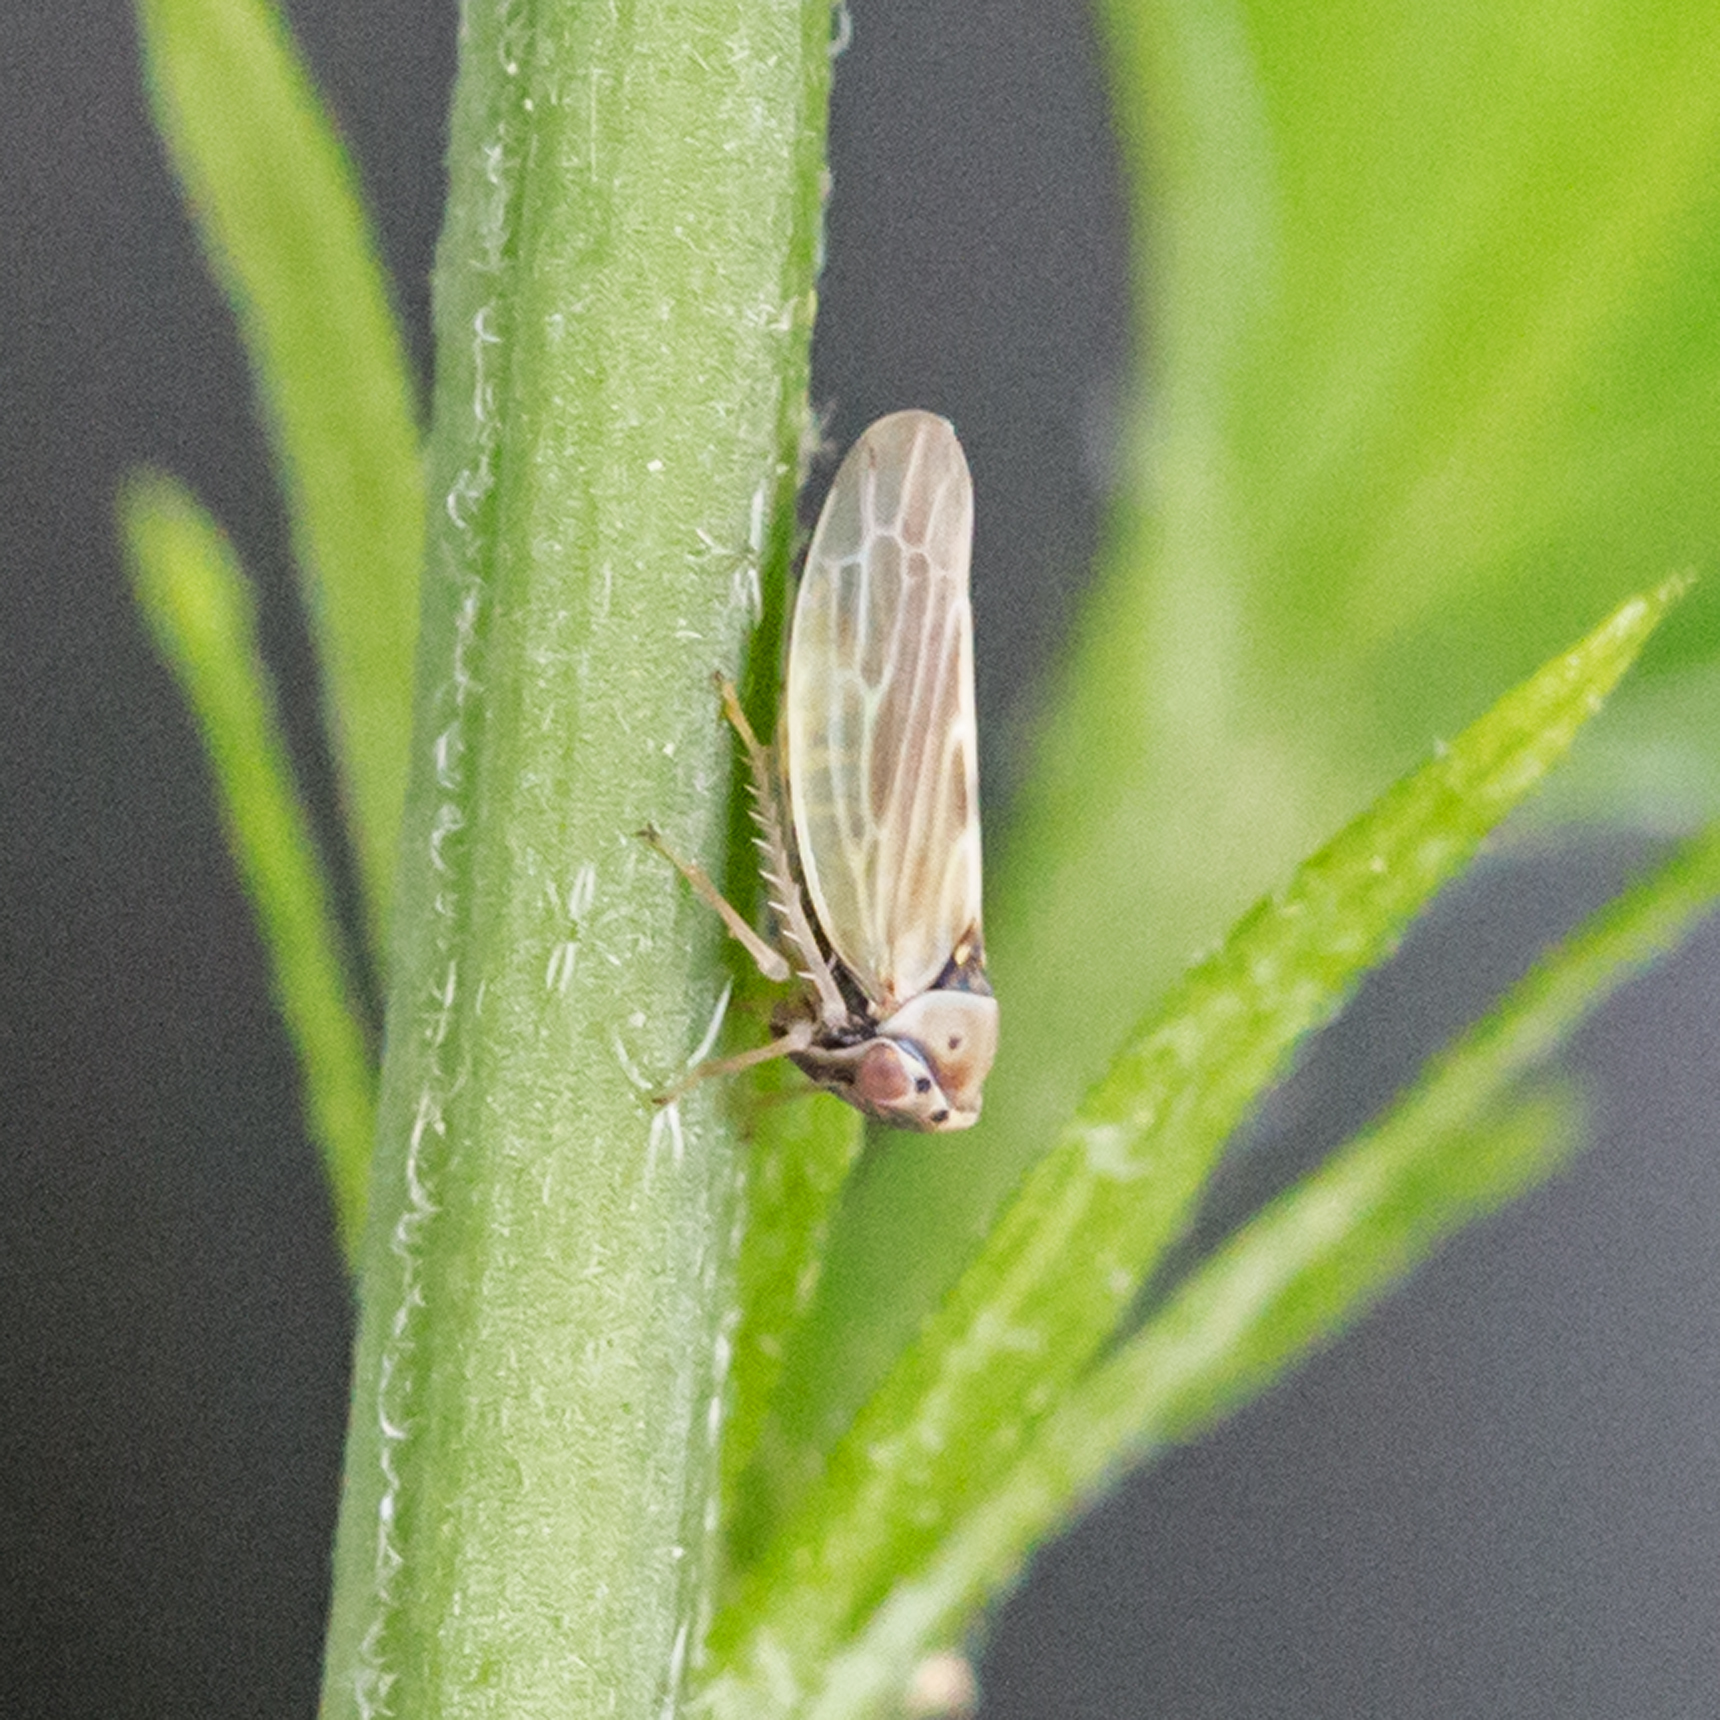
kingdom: Animalia
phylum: Arthropoda
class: Insecta
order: Hemiptera
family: Cicadellidae
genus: Agalliopsis
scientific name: Agalliopsis ancistra
